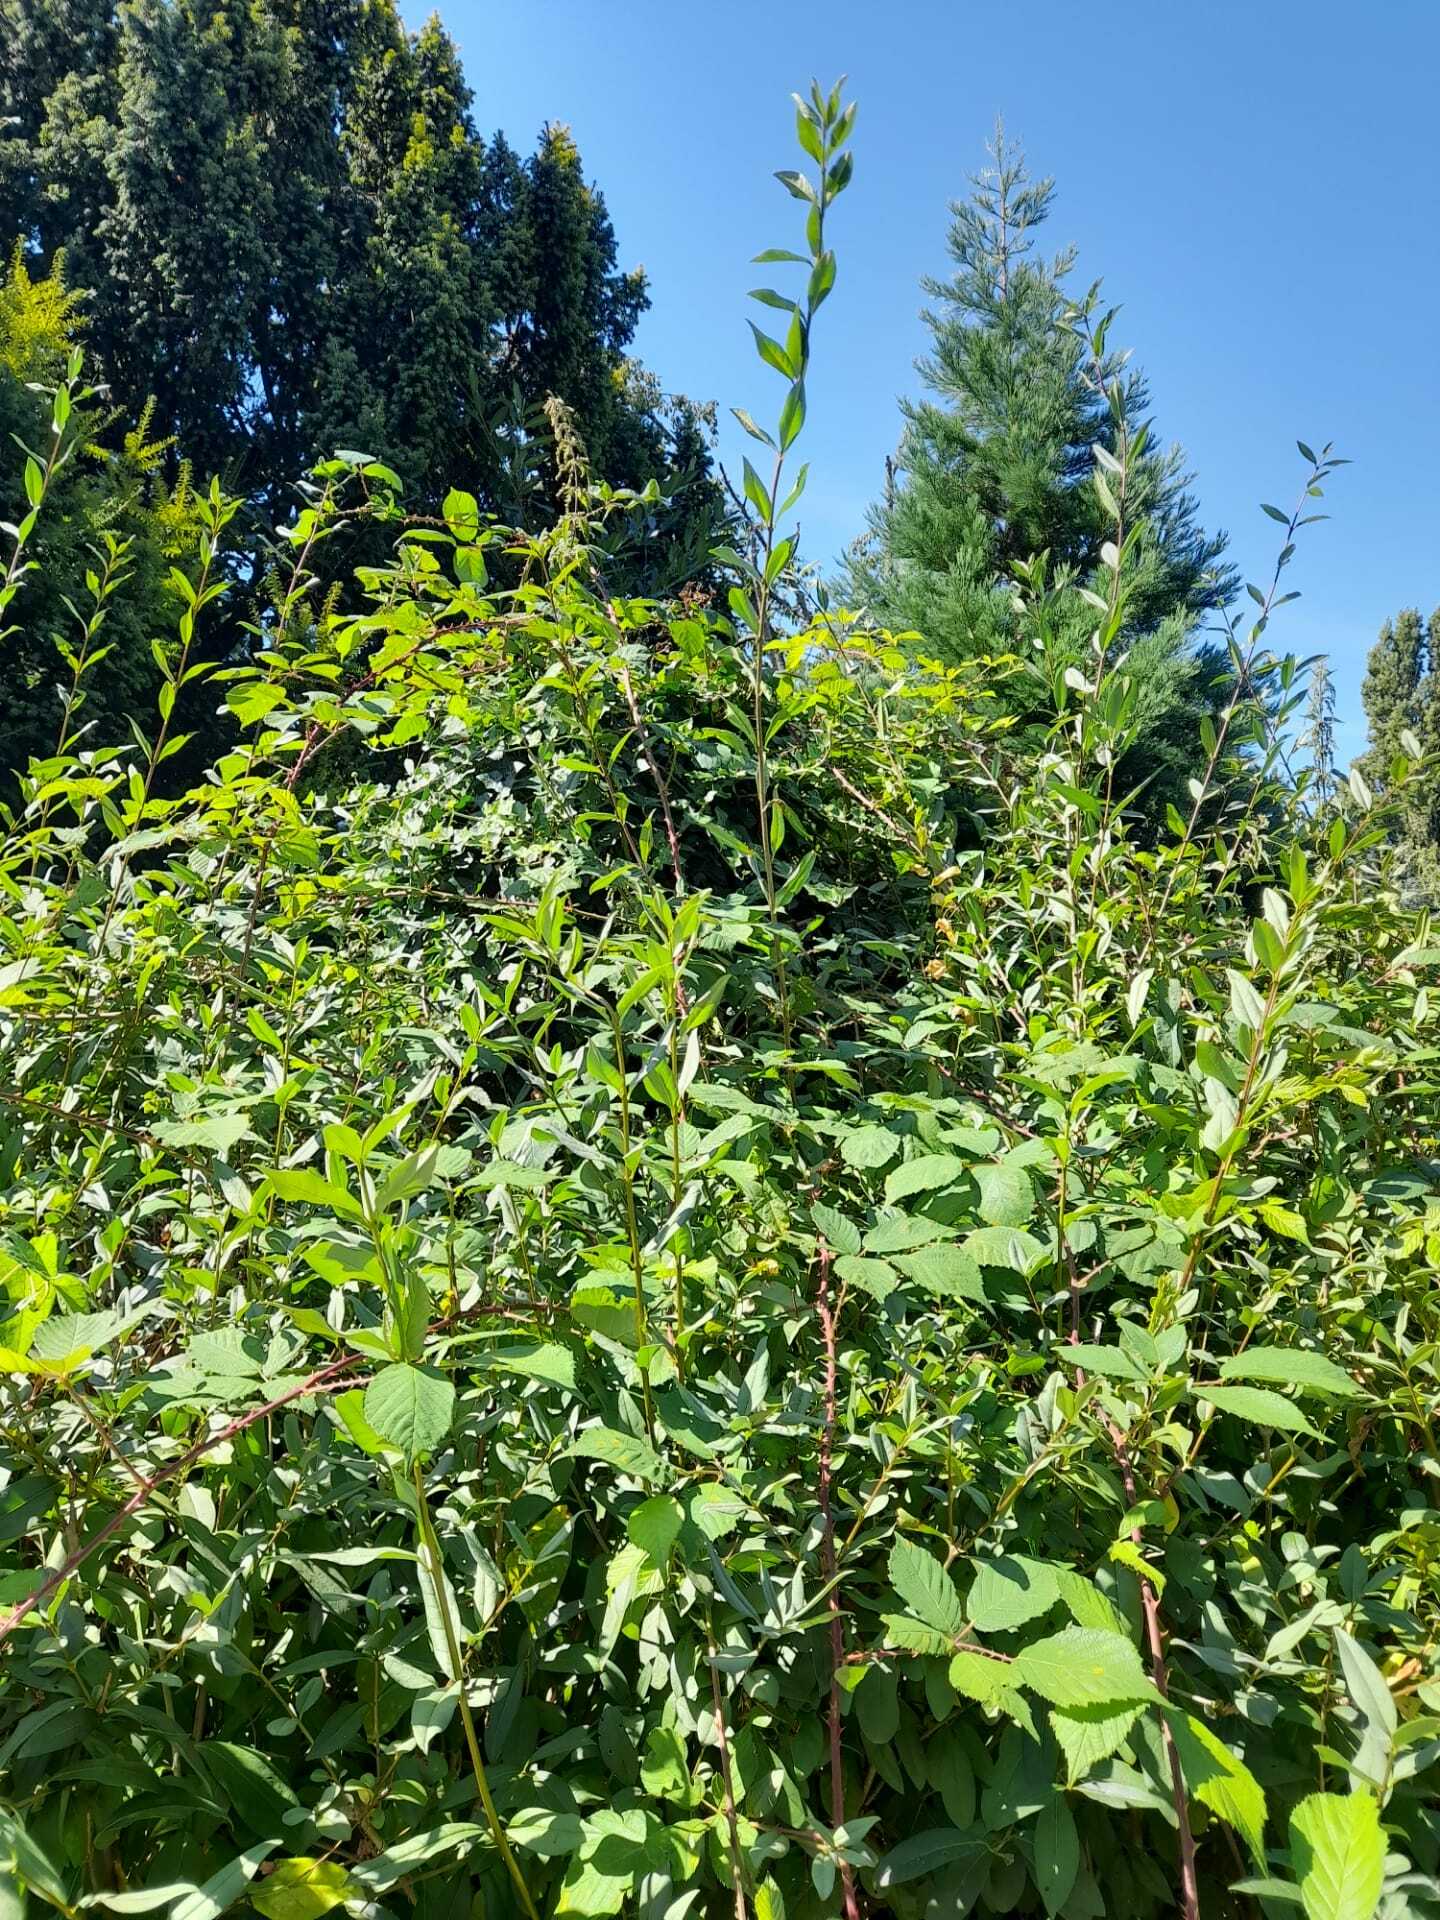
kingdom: Animalia
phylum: Arthropoda
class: Insecta
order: Hymenoptera
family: Vespidae
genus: Vespa
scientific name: Vespa crabro
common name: Hornet
